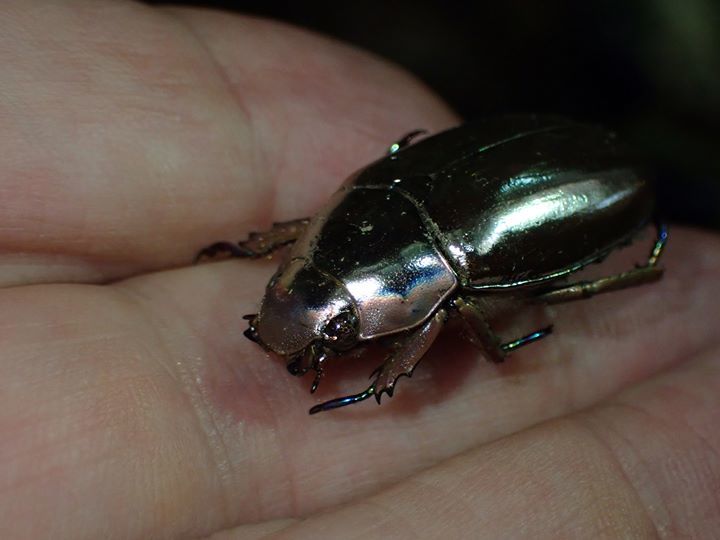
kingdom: Animalia
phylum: Arthropoda
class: Insecta
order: Coleoptera
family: Scarabaeidae
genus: Chrysina
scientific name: Chrysina chrysargyrea
